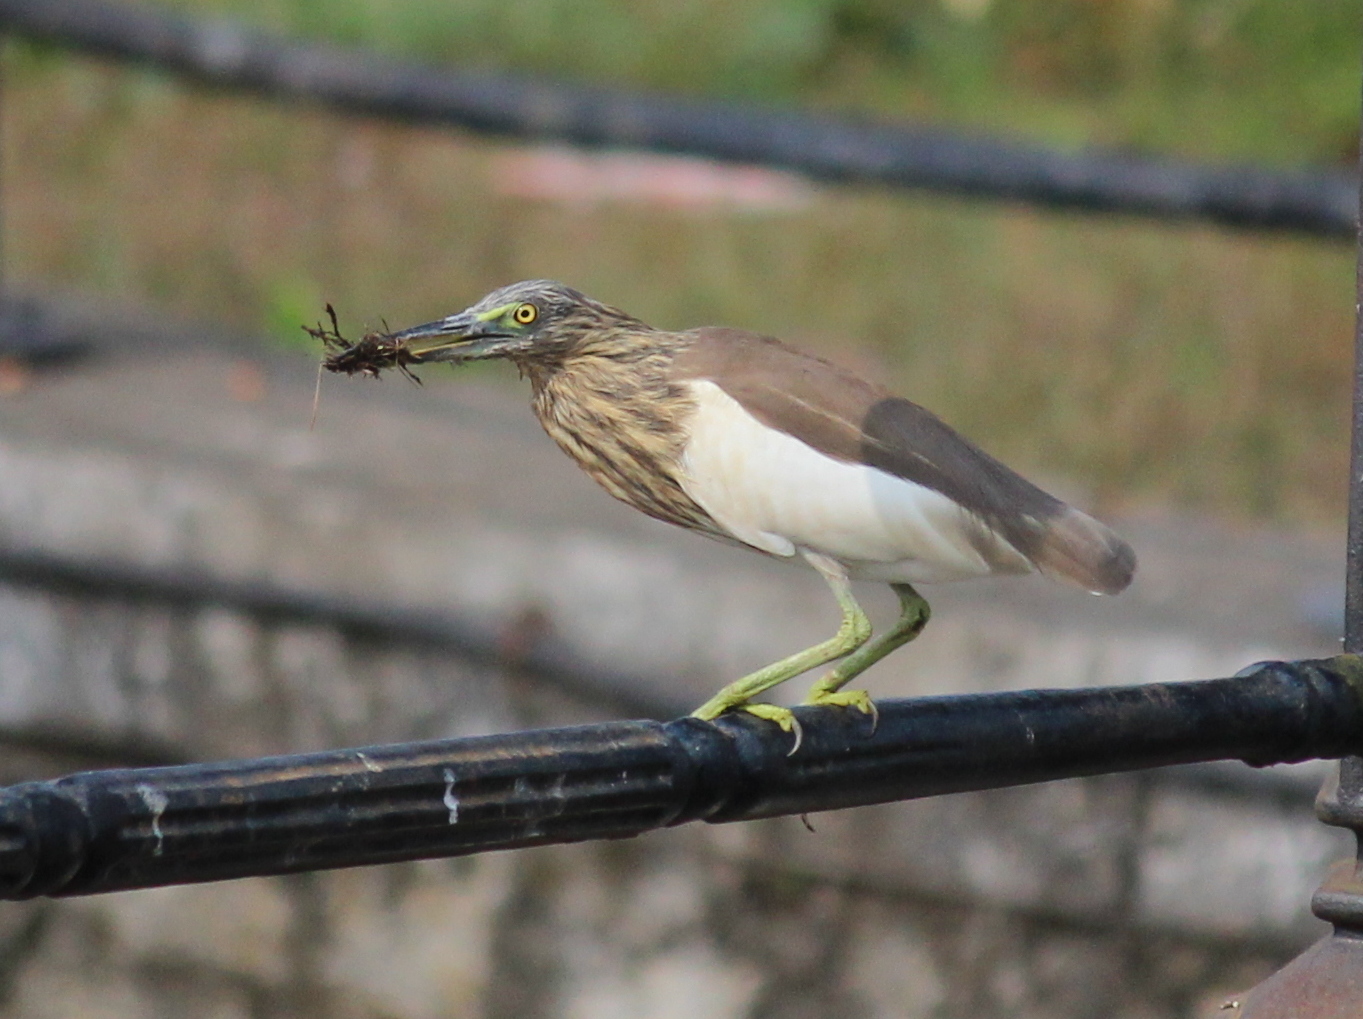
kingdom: Animalia
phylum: Chordata
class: Aves
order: Pelecaniformes
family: Ardeidae
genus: Ardeola
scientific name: Ardeola grayii
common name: Indian pond heron
